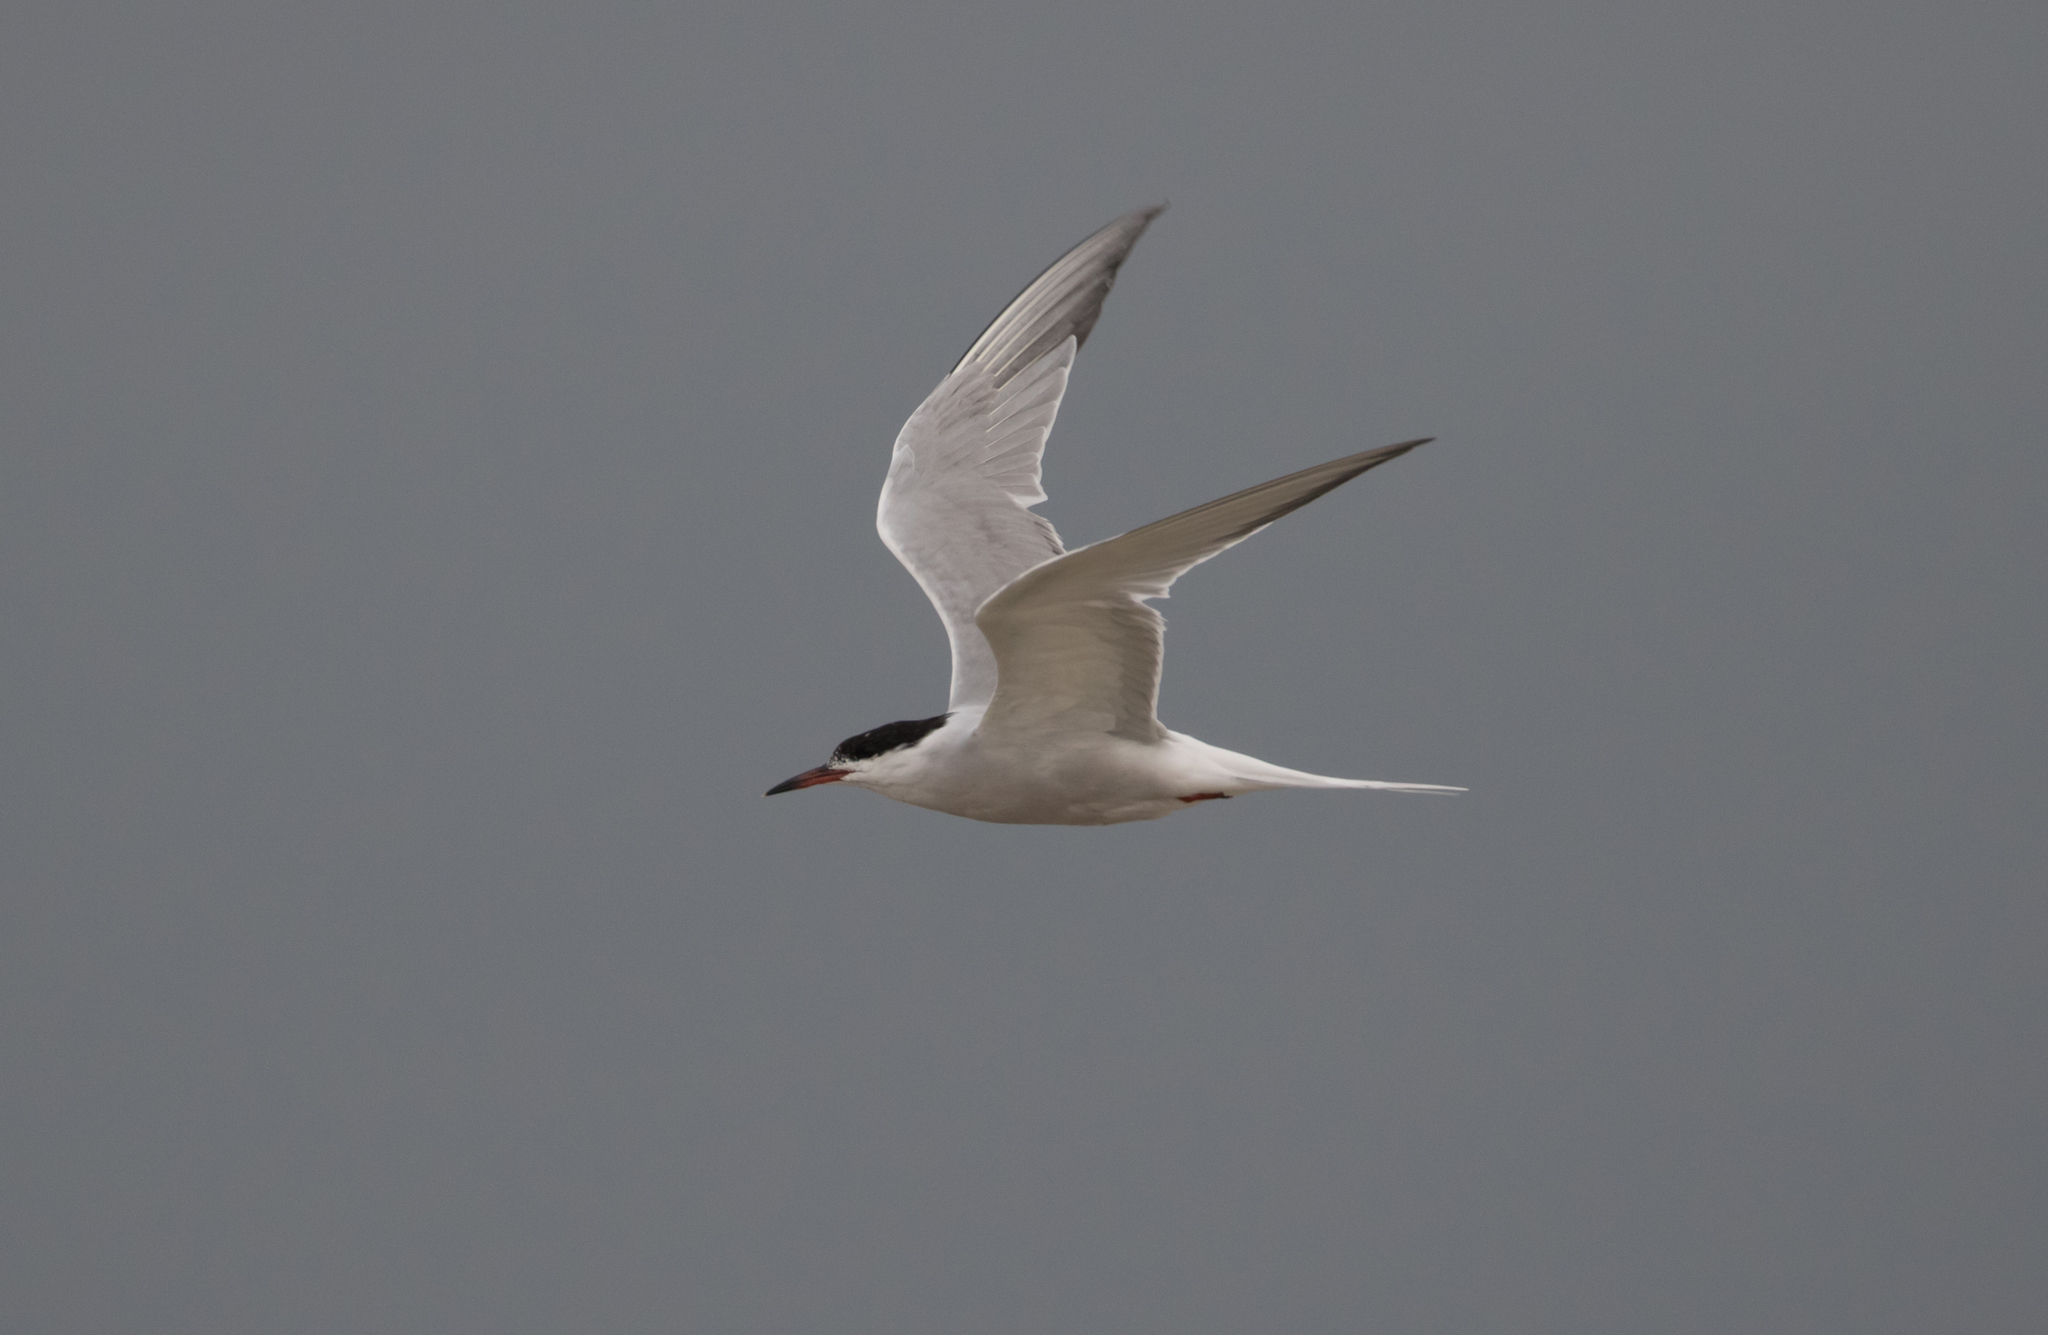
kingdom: Animalia
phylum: Chordata
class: Aves
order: Charadriiformes
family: Laridae
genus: Sterna
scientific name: Sterna hirundo
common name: Common tern
